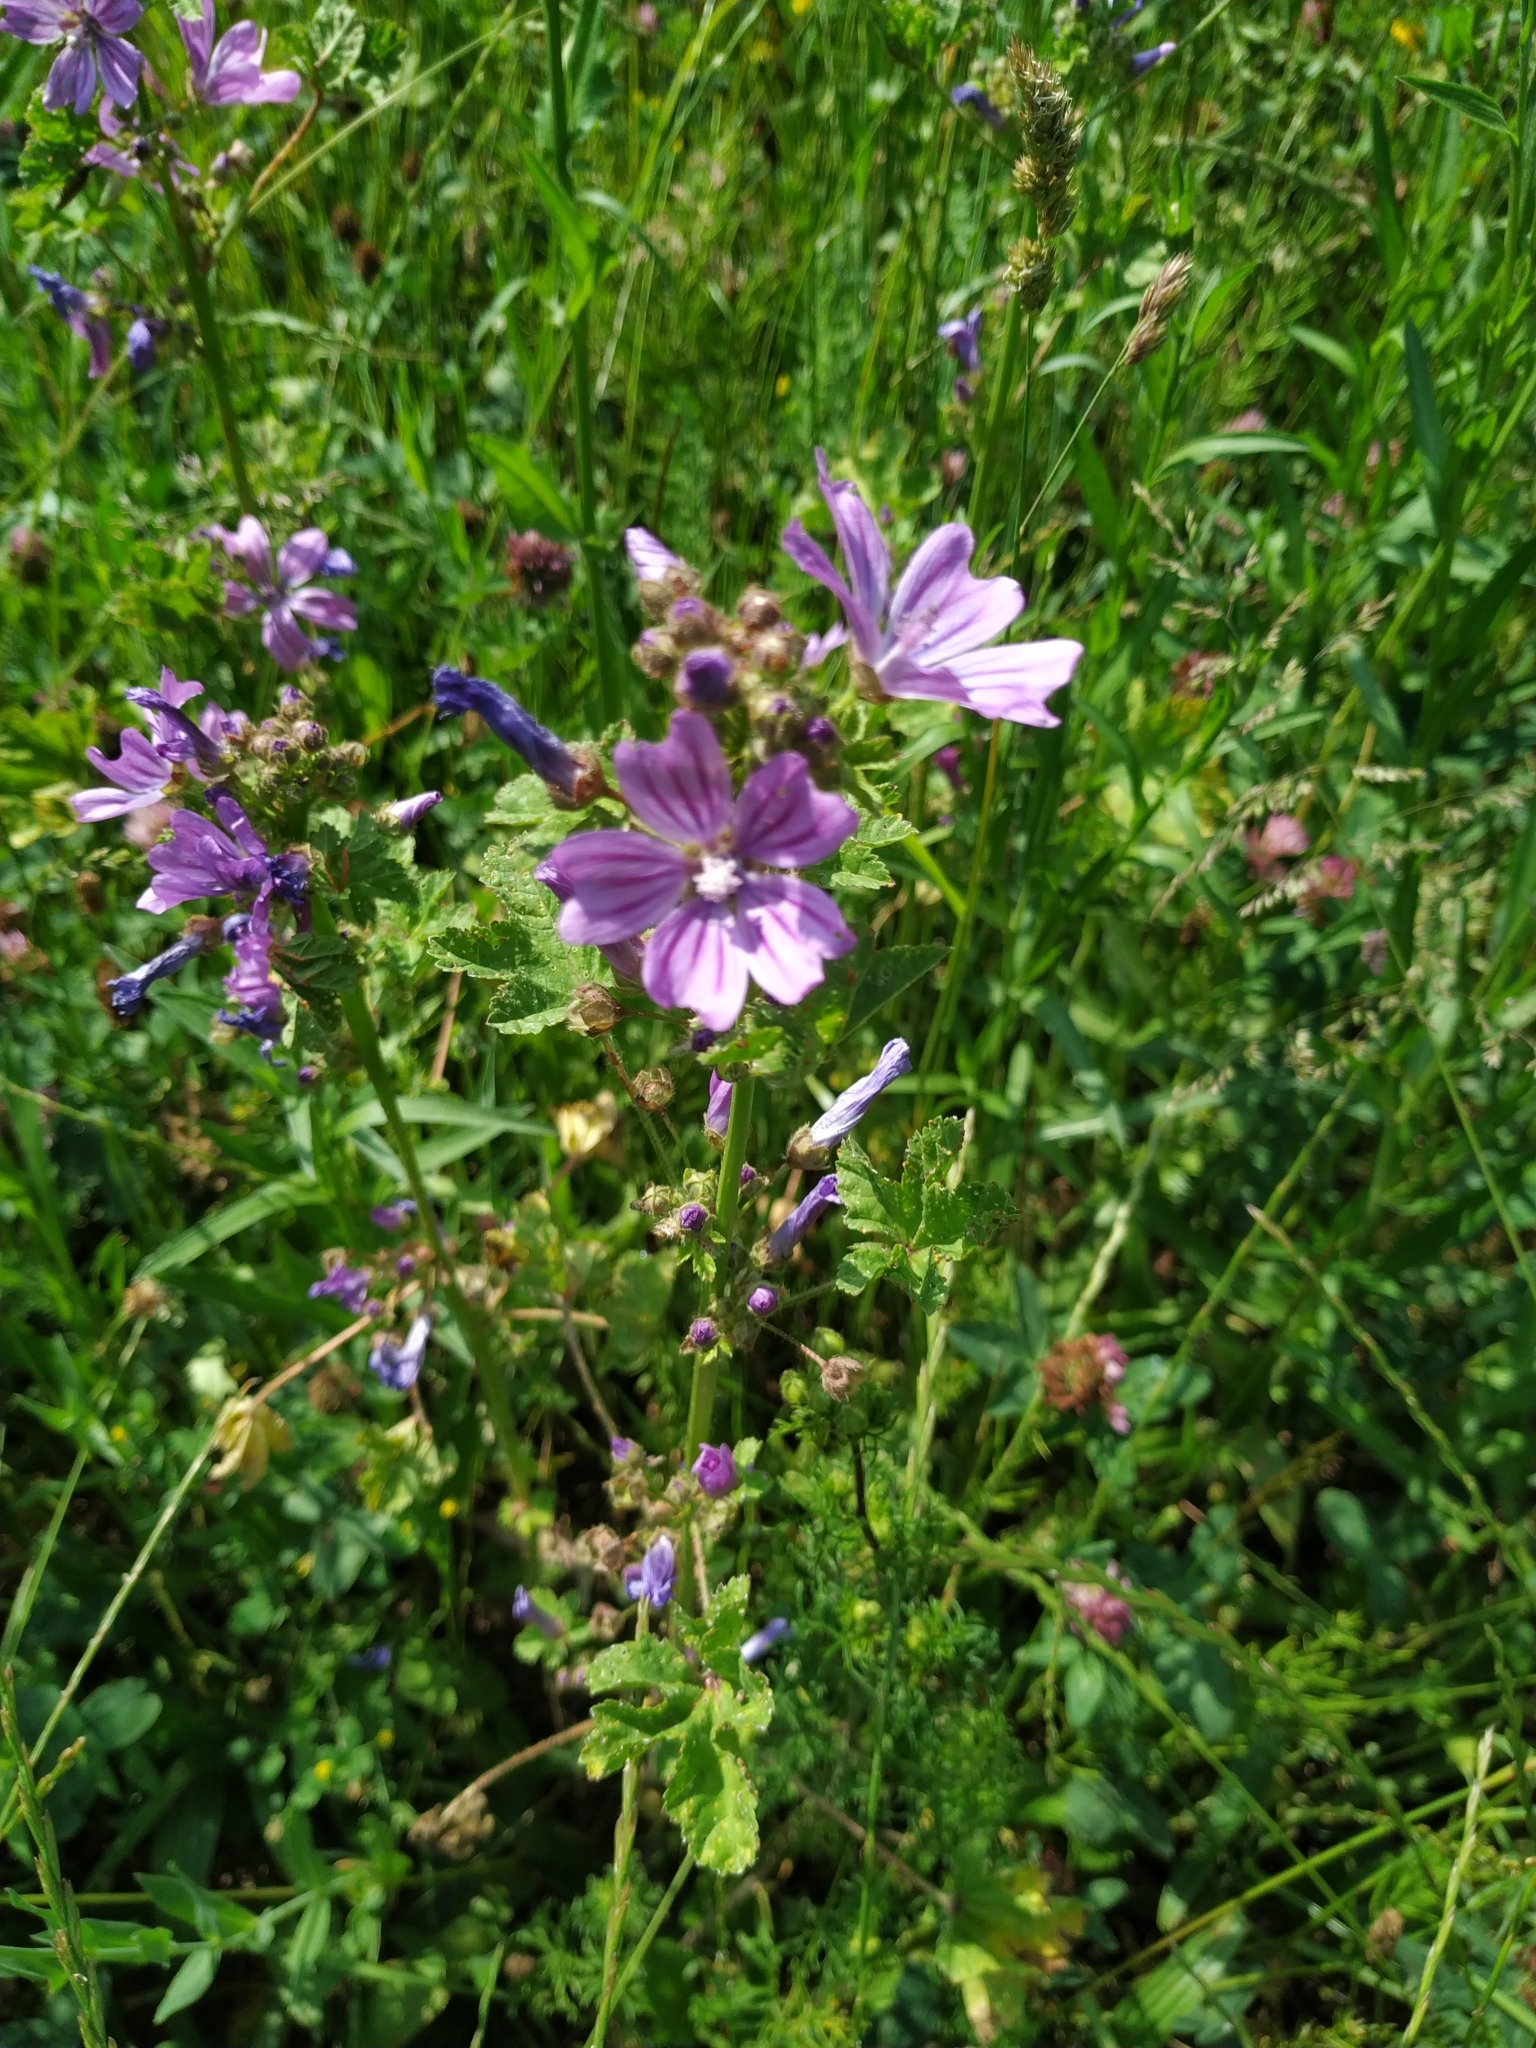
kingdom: Plantae
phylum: Tracheophyta
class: Magnoliopsida
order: Malvales
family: Malvaceae
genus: Malva
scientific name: Malva sylvestris
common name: Common mallow
